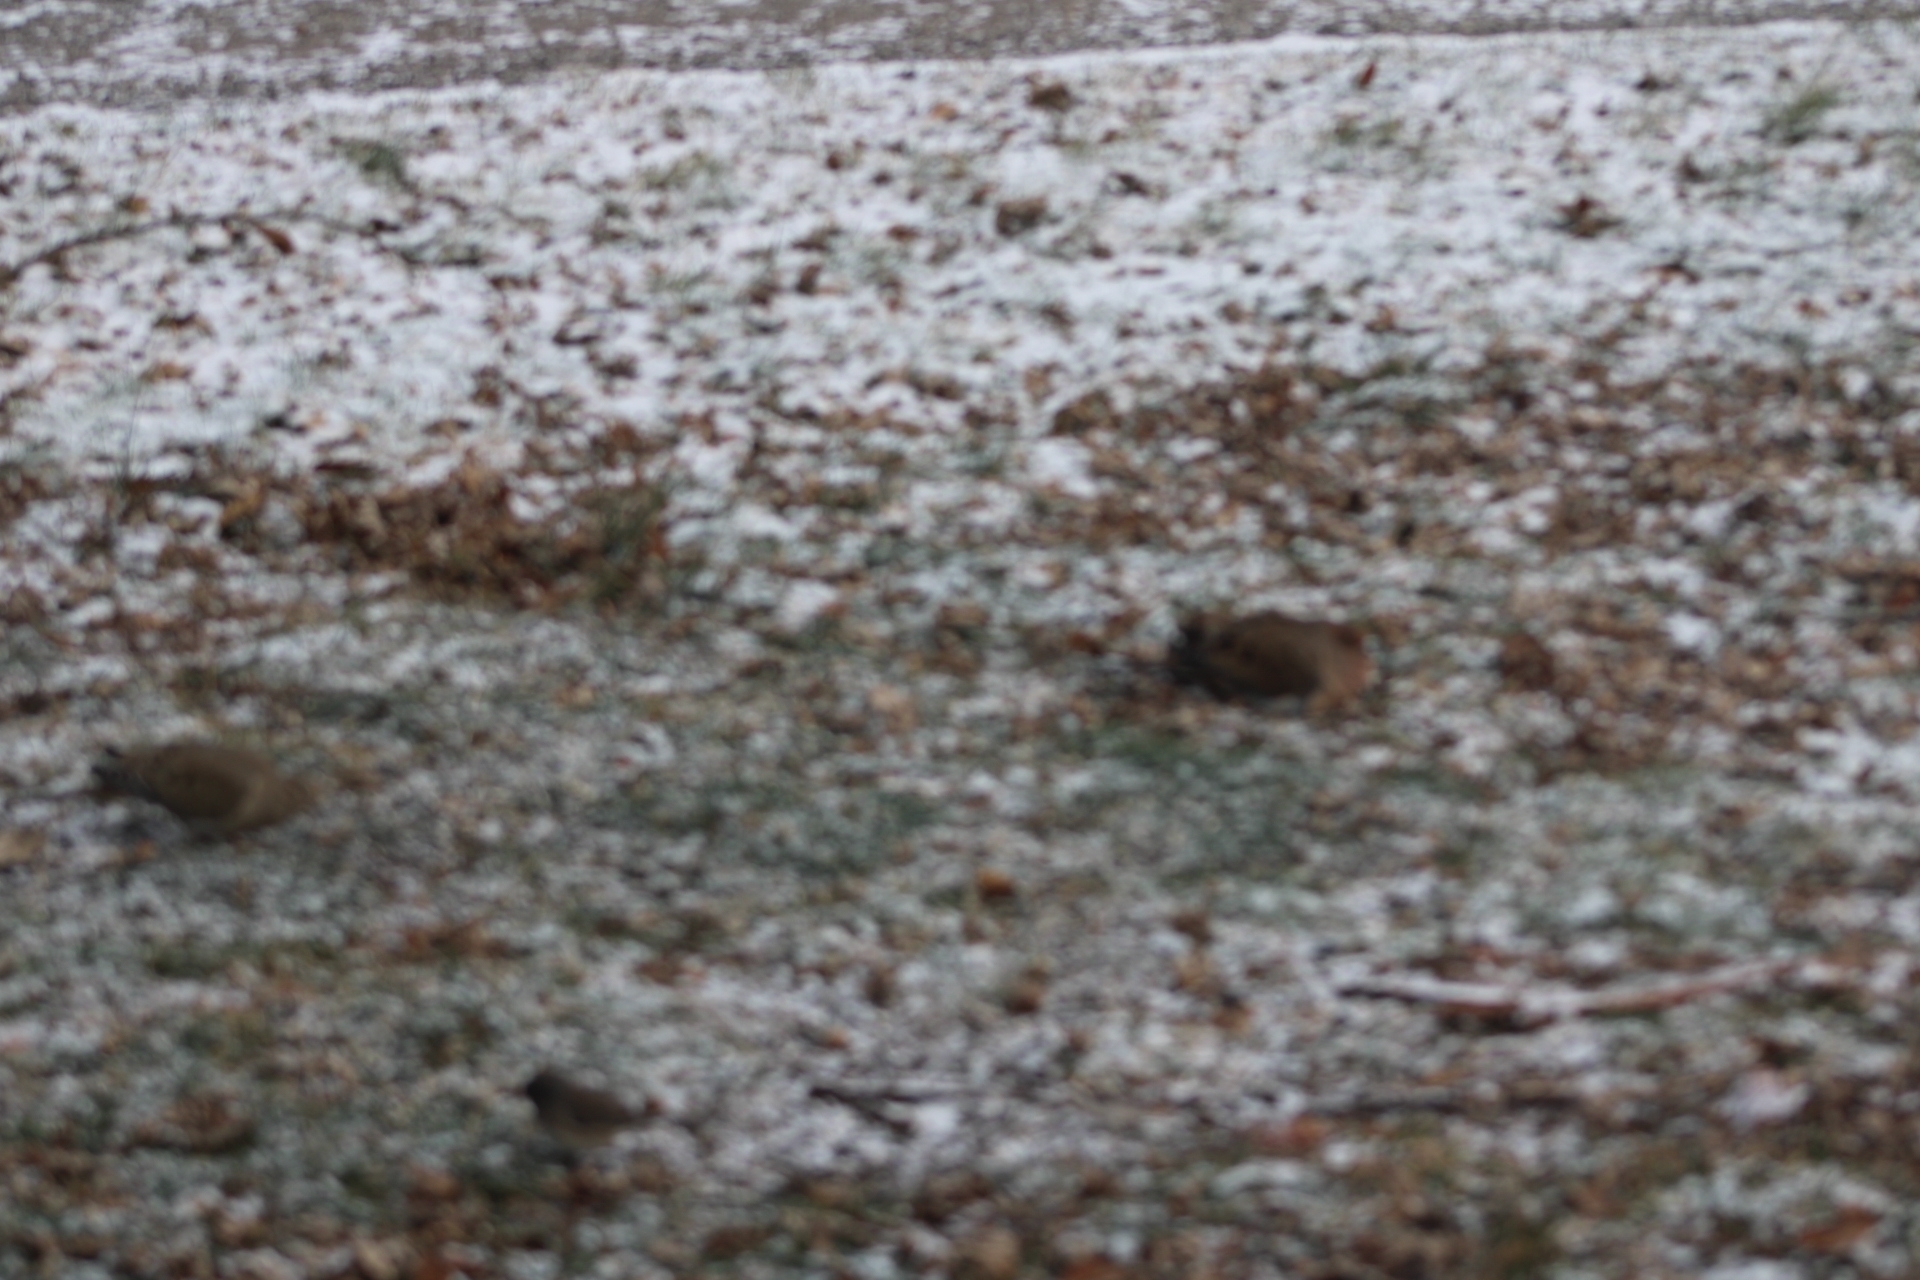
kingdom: Animalia
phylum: Chordata
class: Aves
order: Columbiformes
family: Columbidae
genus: Zenaida
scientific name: Zenaida macroura
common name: Mourning dove
